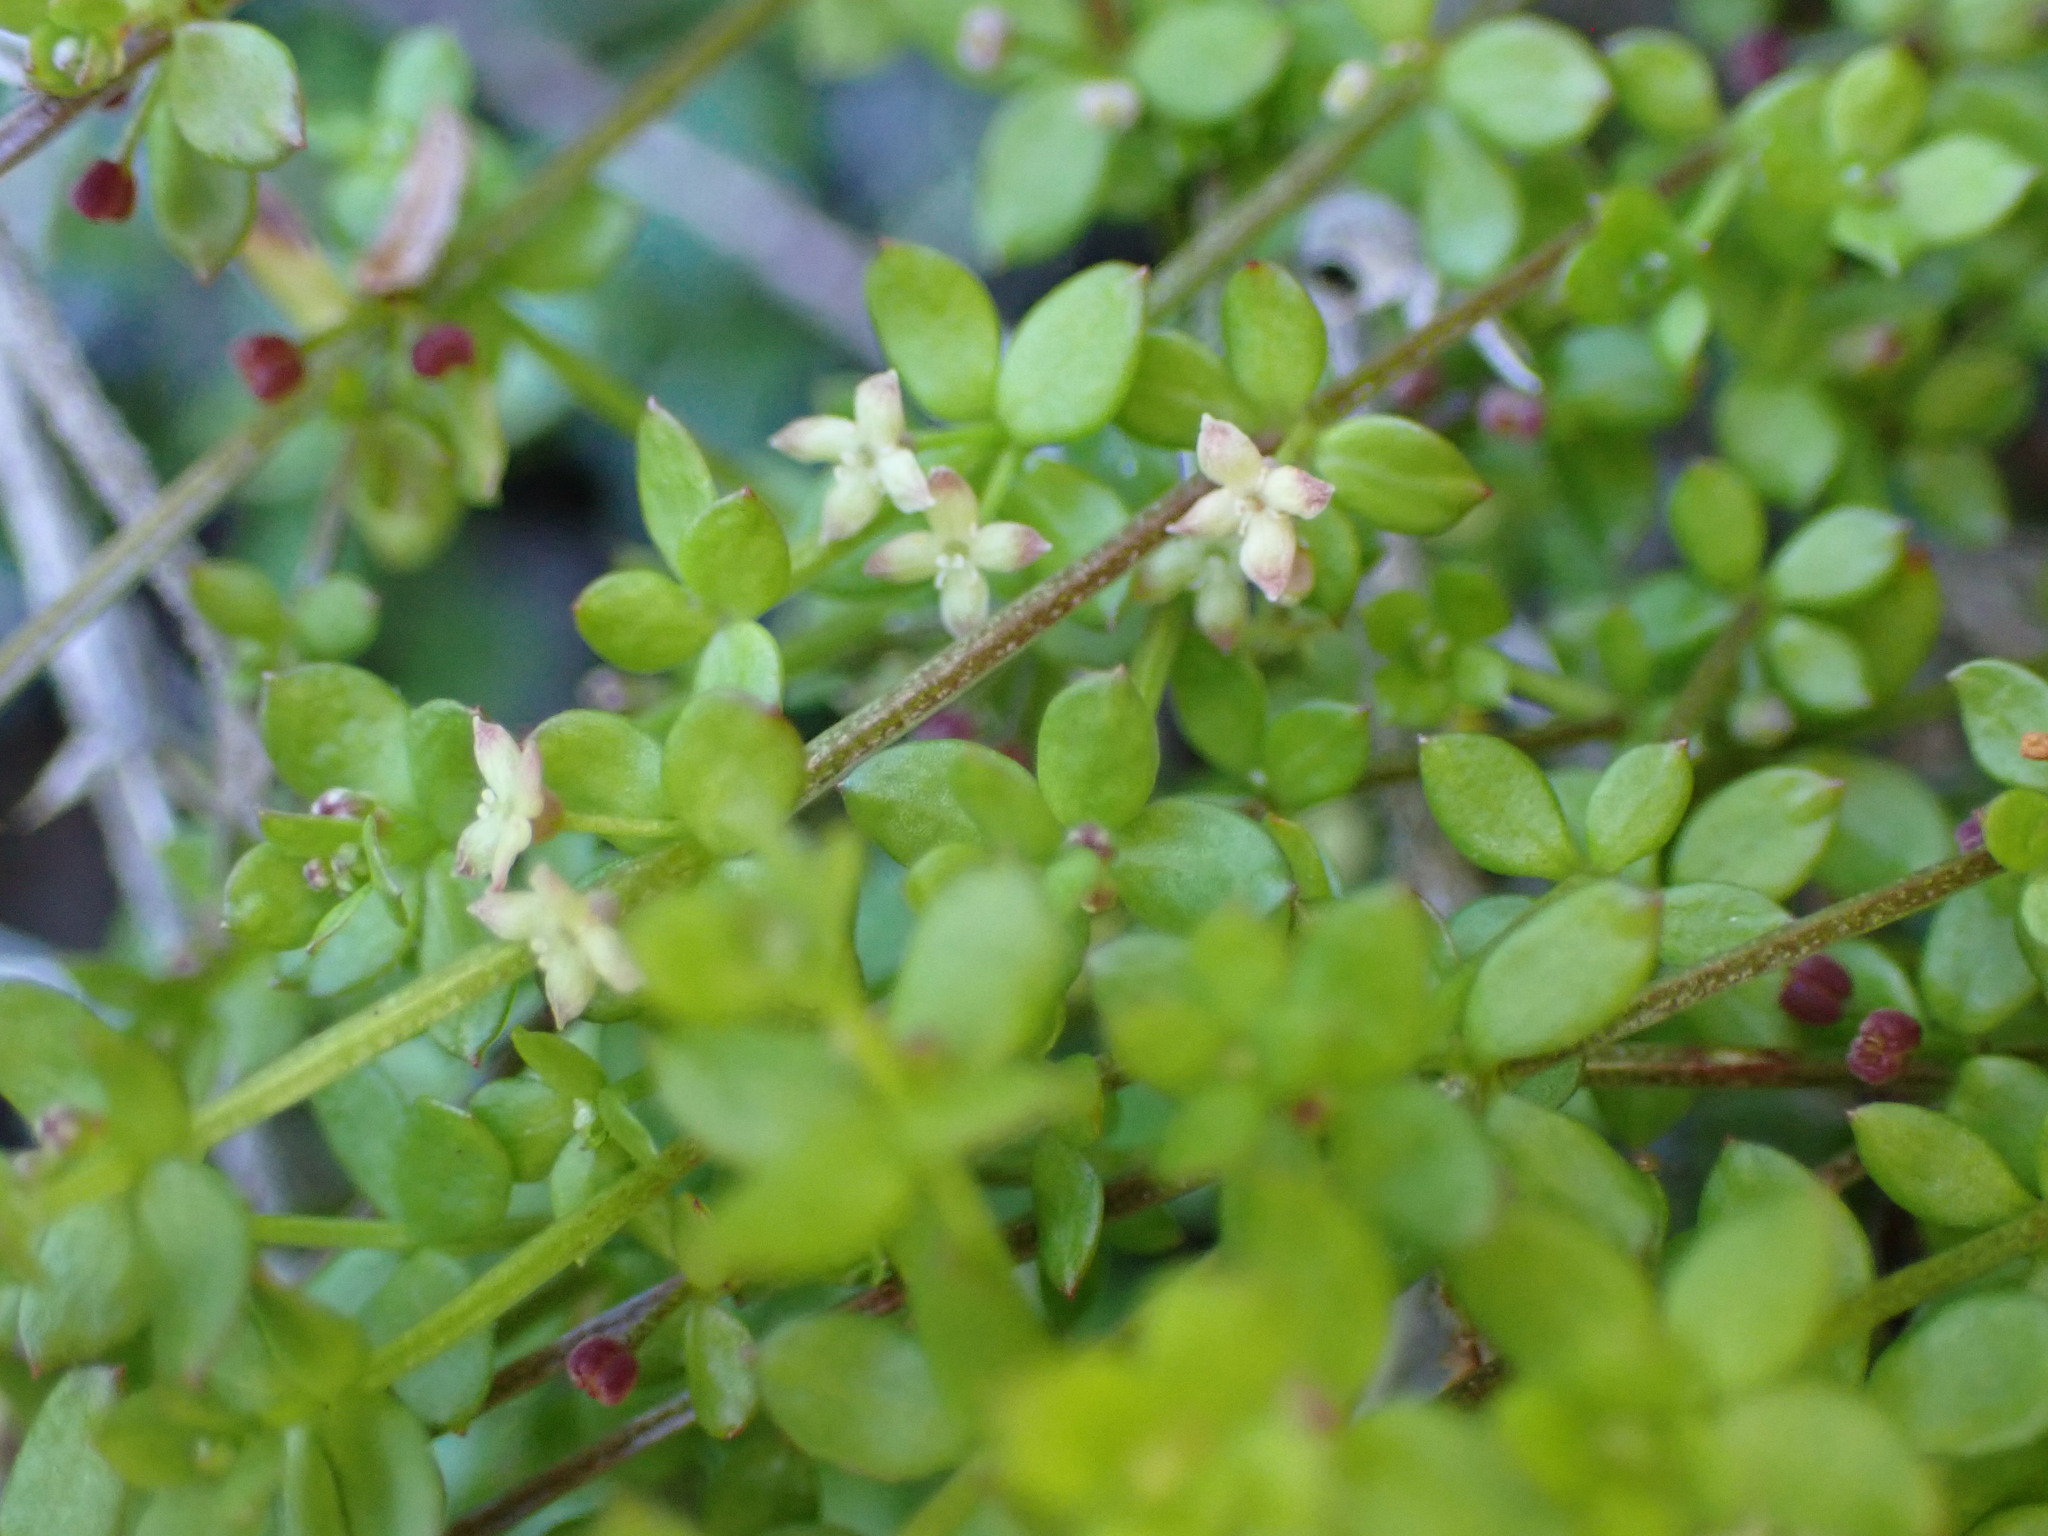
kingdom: Plantae
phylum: Tracheophyta
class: Magnoliopsida
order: Gentianales
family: Rubiaceae
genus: Galium
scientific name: Galium propinquum
